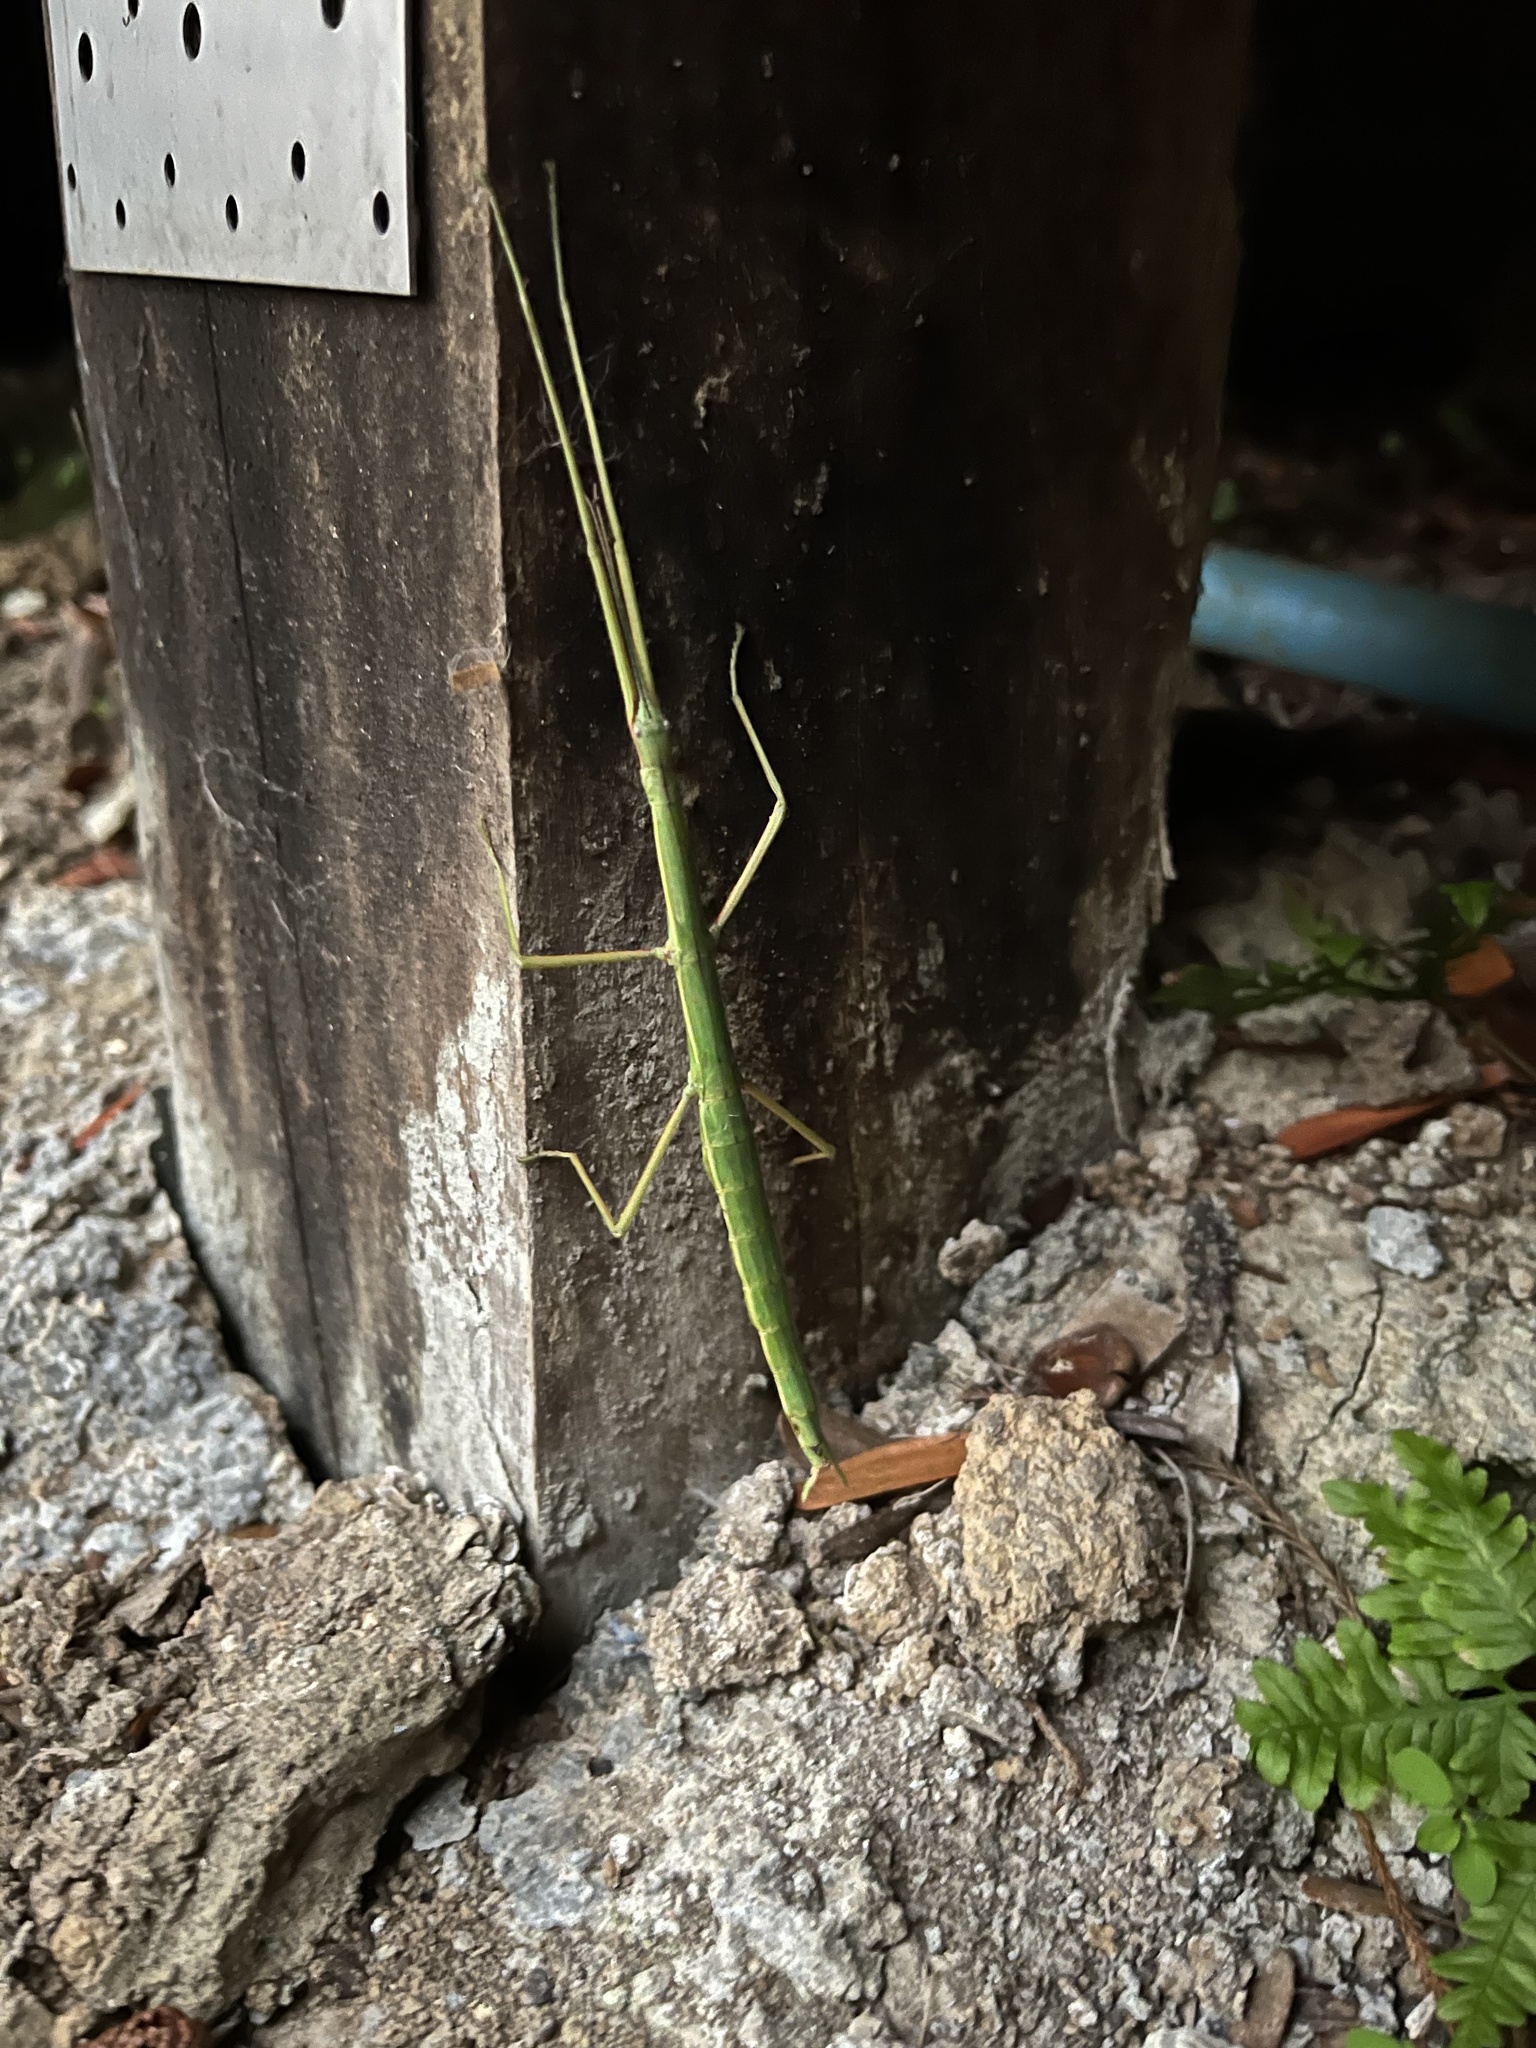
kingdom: Animalia
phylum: Arthropoda
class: Insecta
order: Phasmida
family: Phasmatidae
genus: Clitarchus
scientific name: Clitarchus hookeri
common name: Smooth stick insect
